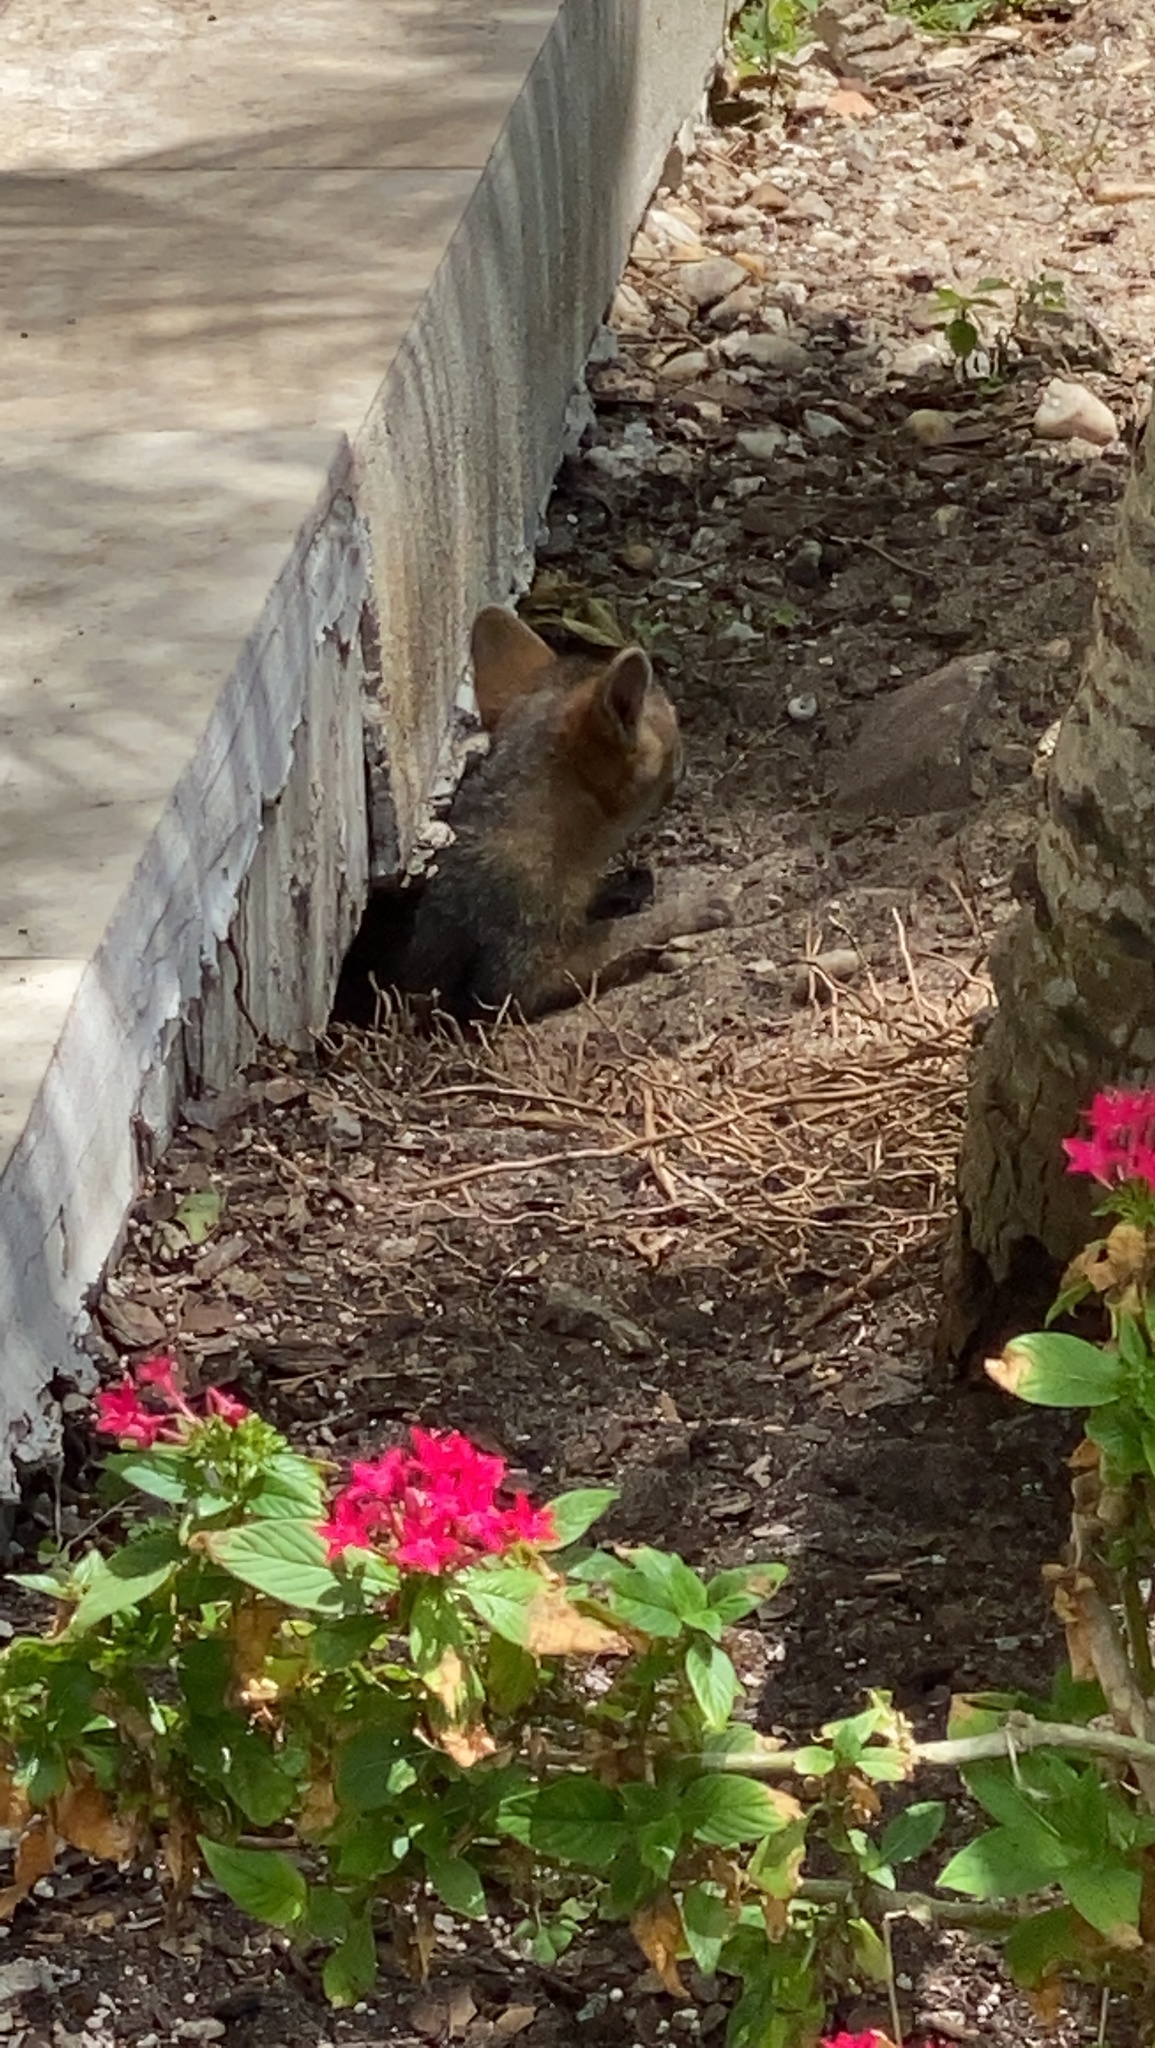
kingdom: Animalia
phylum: Chordata
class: Mammalia
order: Carnivora
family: Canidae
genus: Urocyon
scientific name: Urocyon cinereoargenteus
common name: Gray fox
